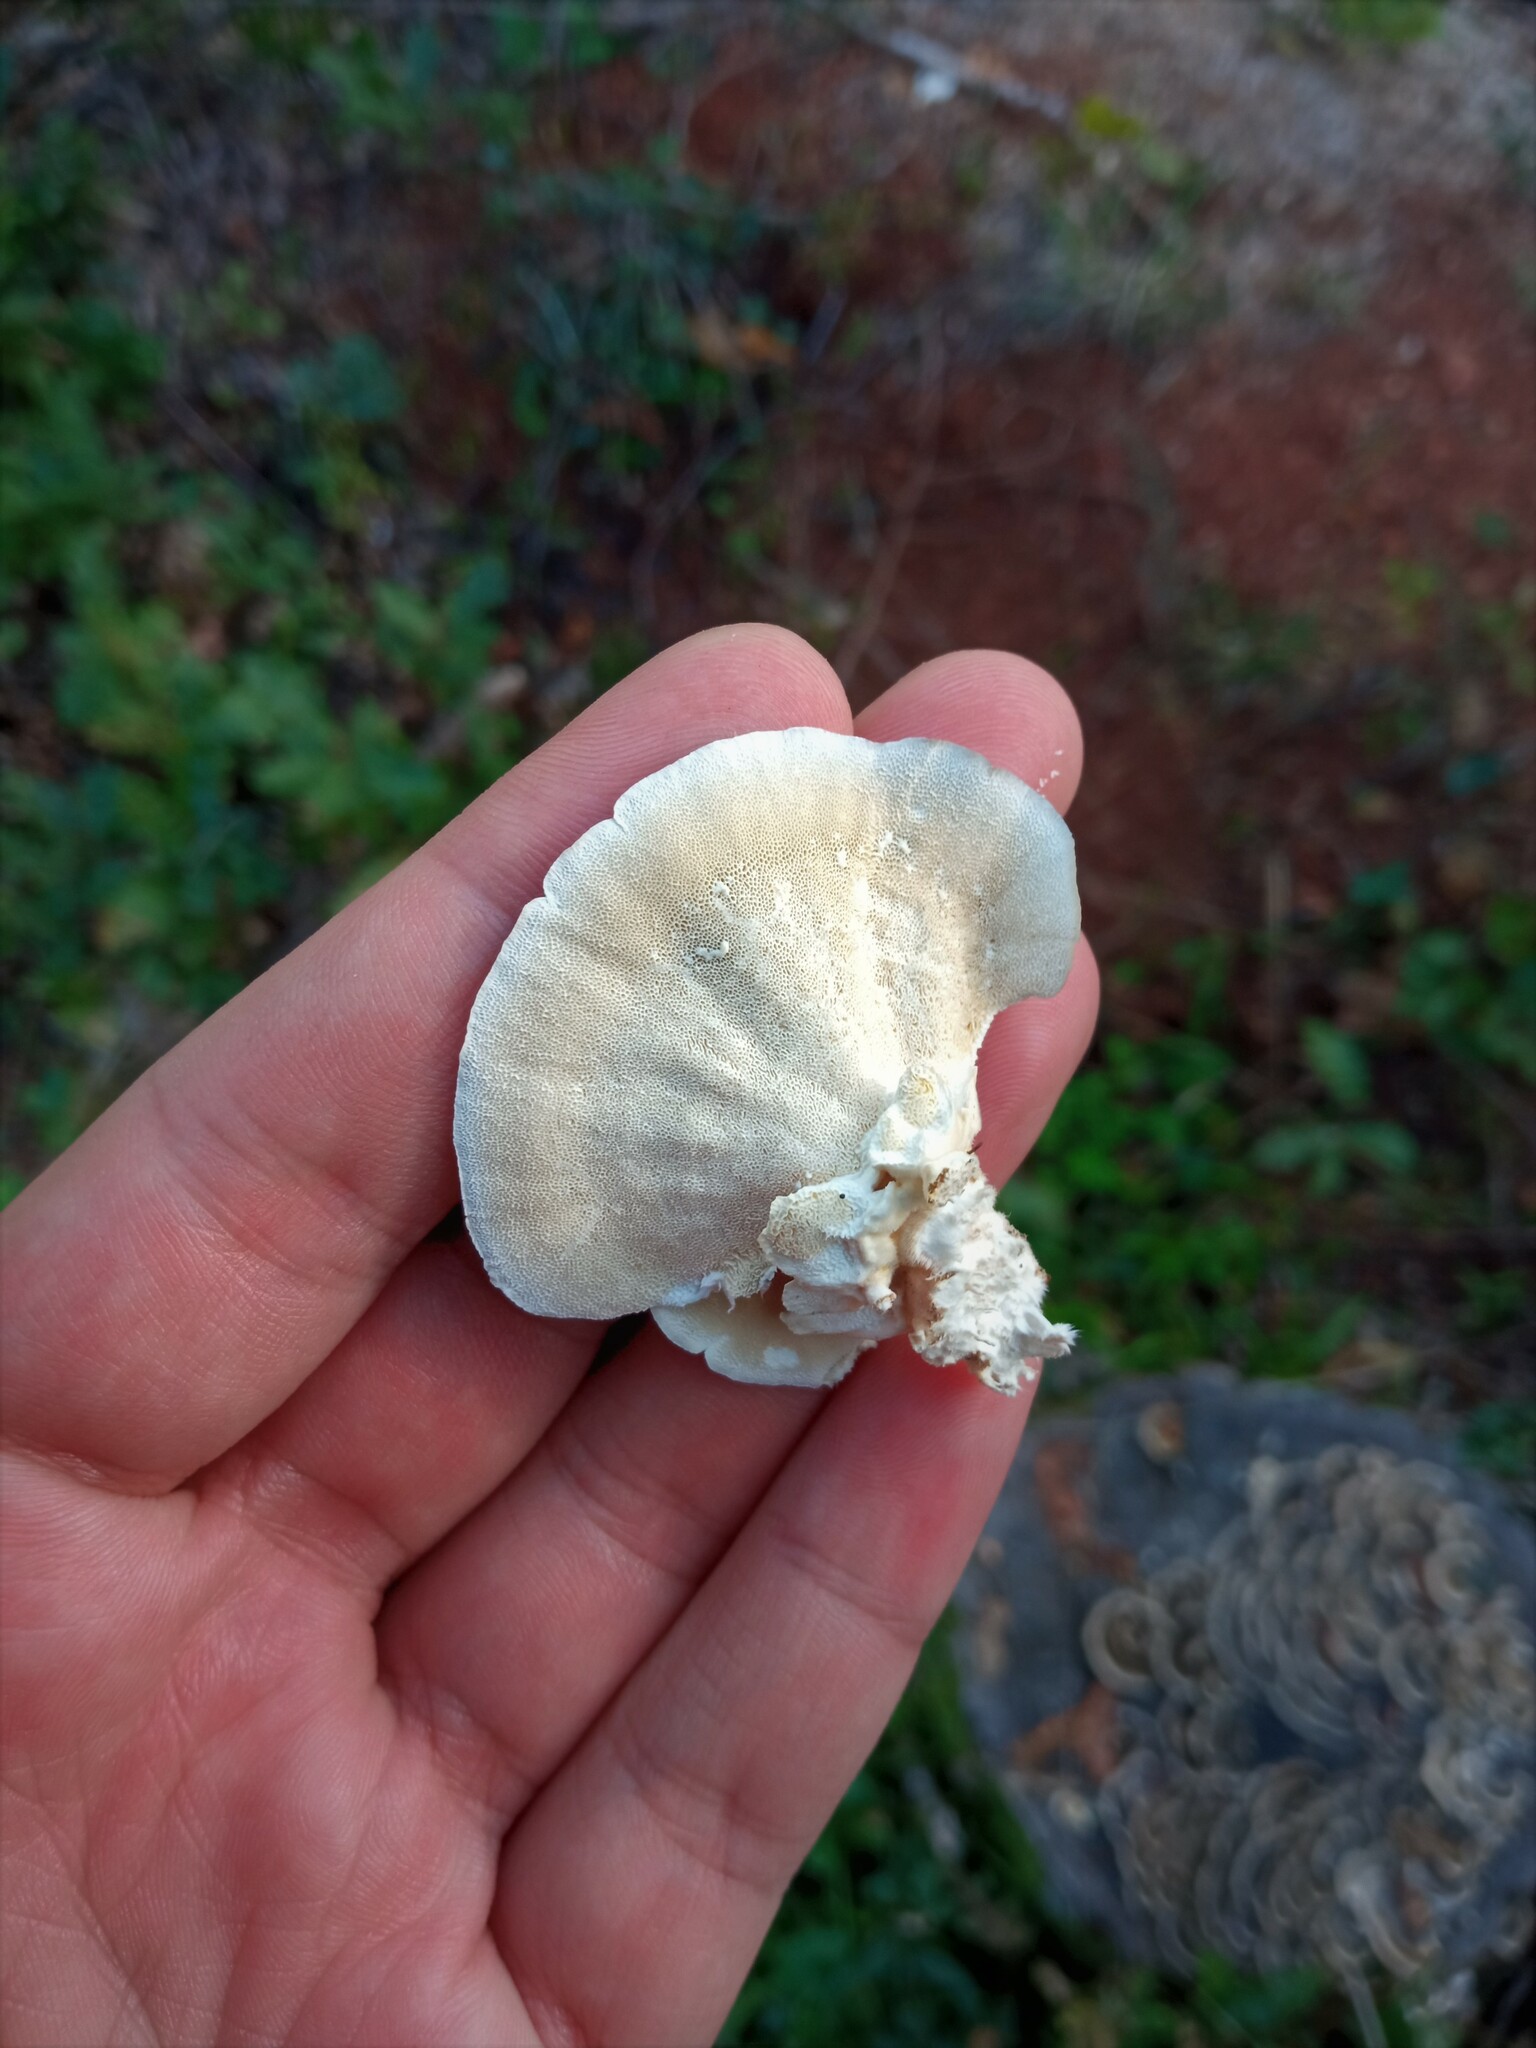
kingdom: Fungi
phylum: Basidiomycota
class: Agaricomycetes
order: Polyporales
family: Polyporaceae
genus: Trametes
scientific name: Trametes versicolor
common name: Turkeytail
